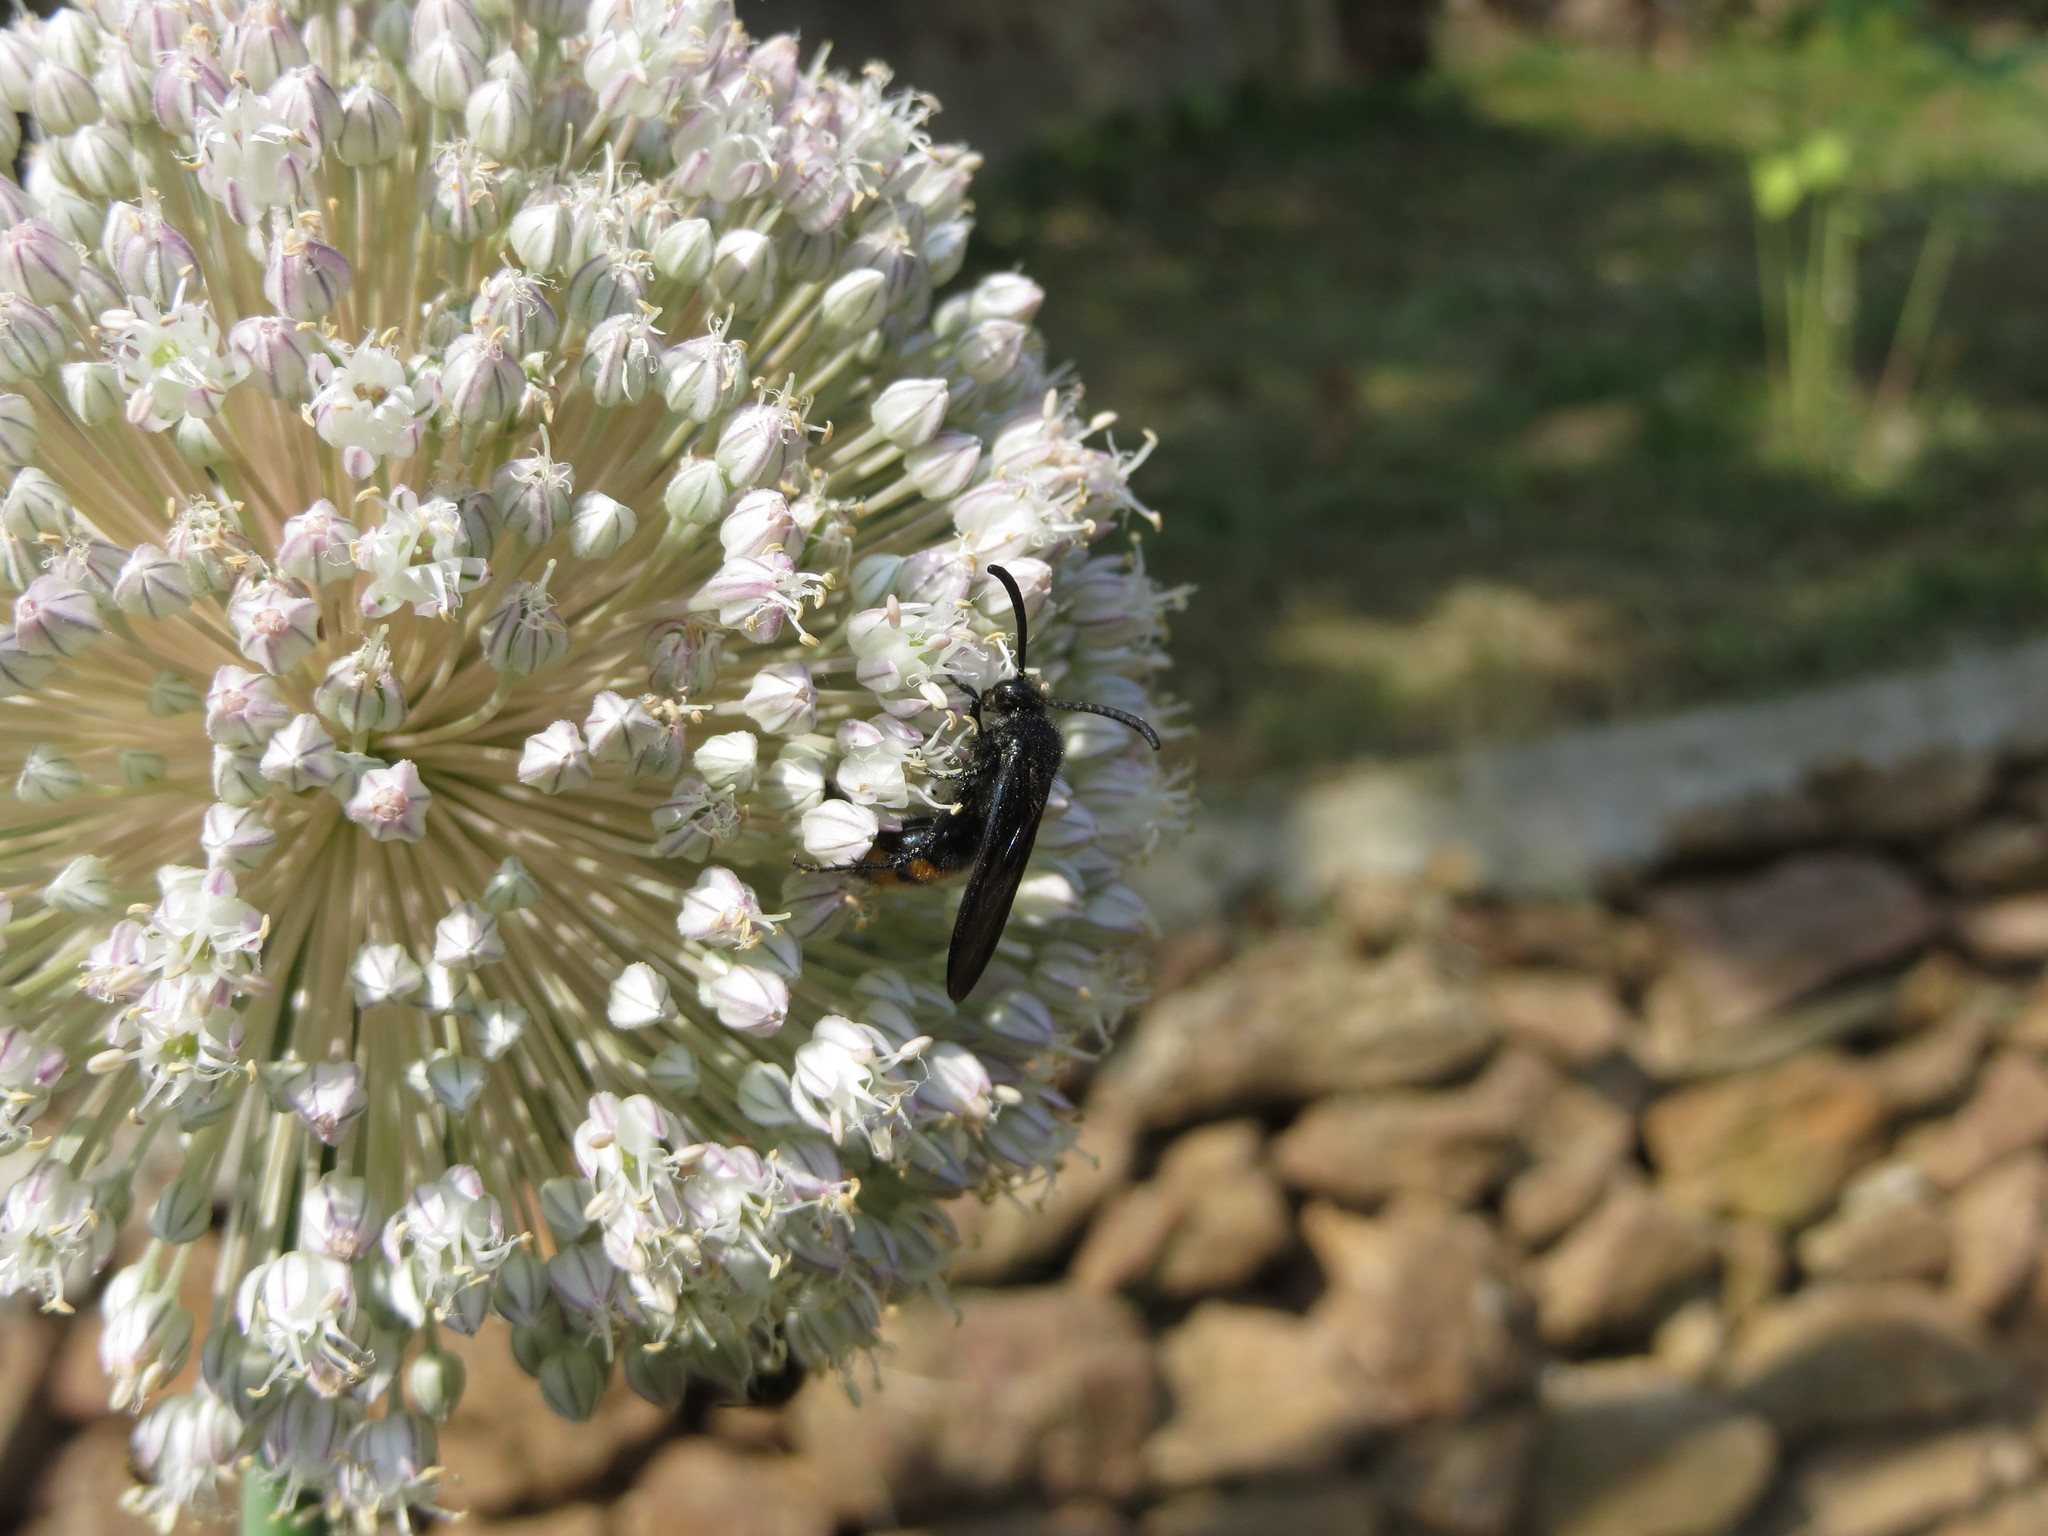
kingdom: Animalia
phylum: Arthropoda
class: Insecta
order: Hymenoptera
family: Scoliidae
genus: Scolia
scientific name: Scolia hirta
